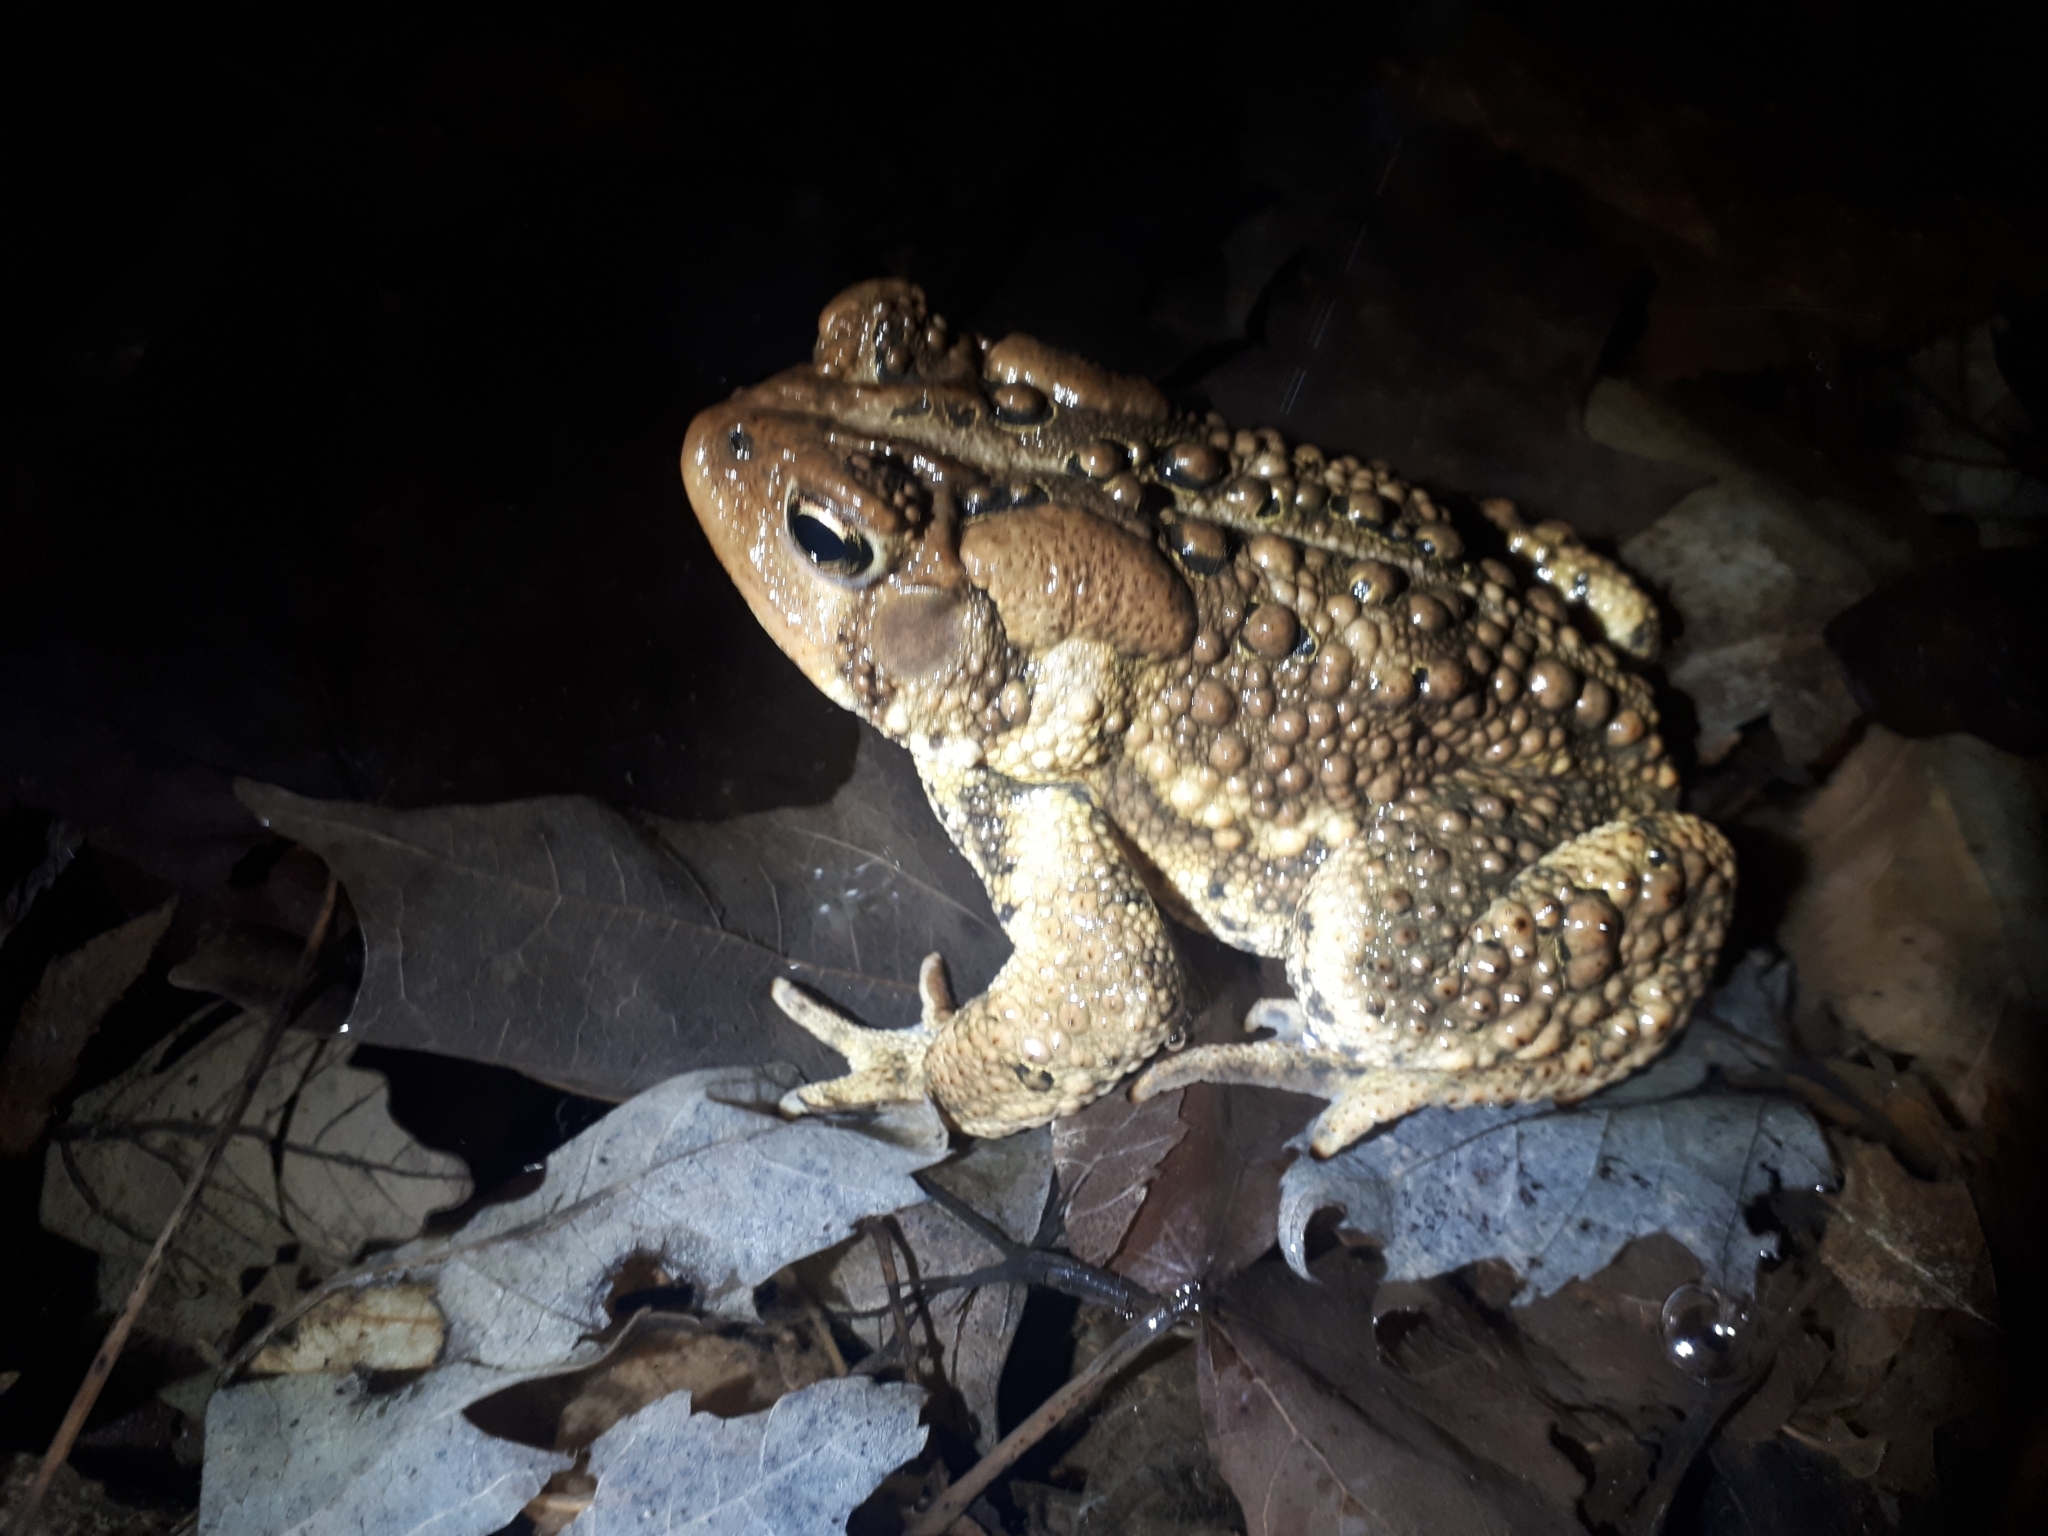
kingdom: Animalia
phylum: Chordata
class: Amphibia
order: Anura
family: Bufonidae
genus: Anaxyrus
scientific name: Anaxyrus americanus
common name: American toad
